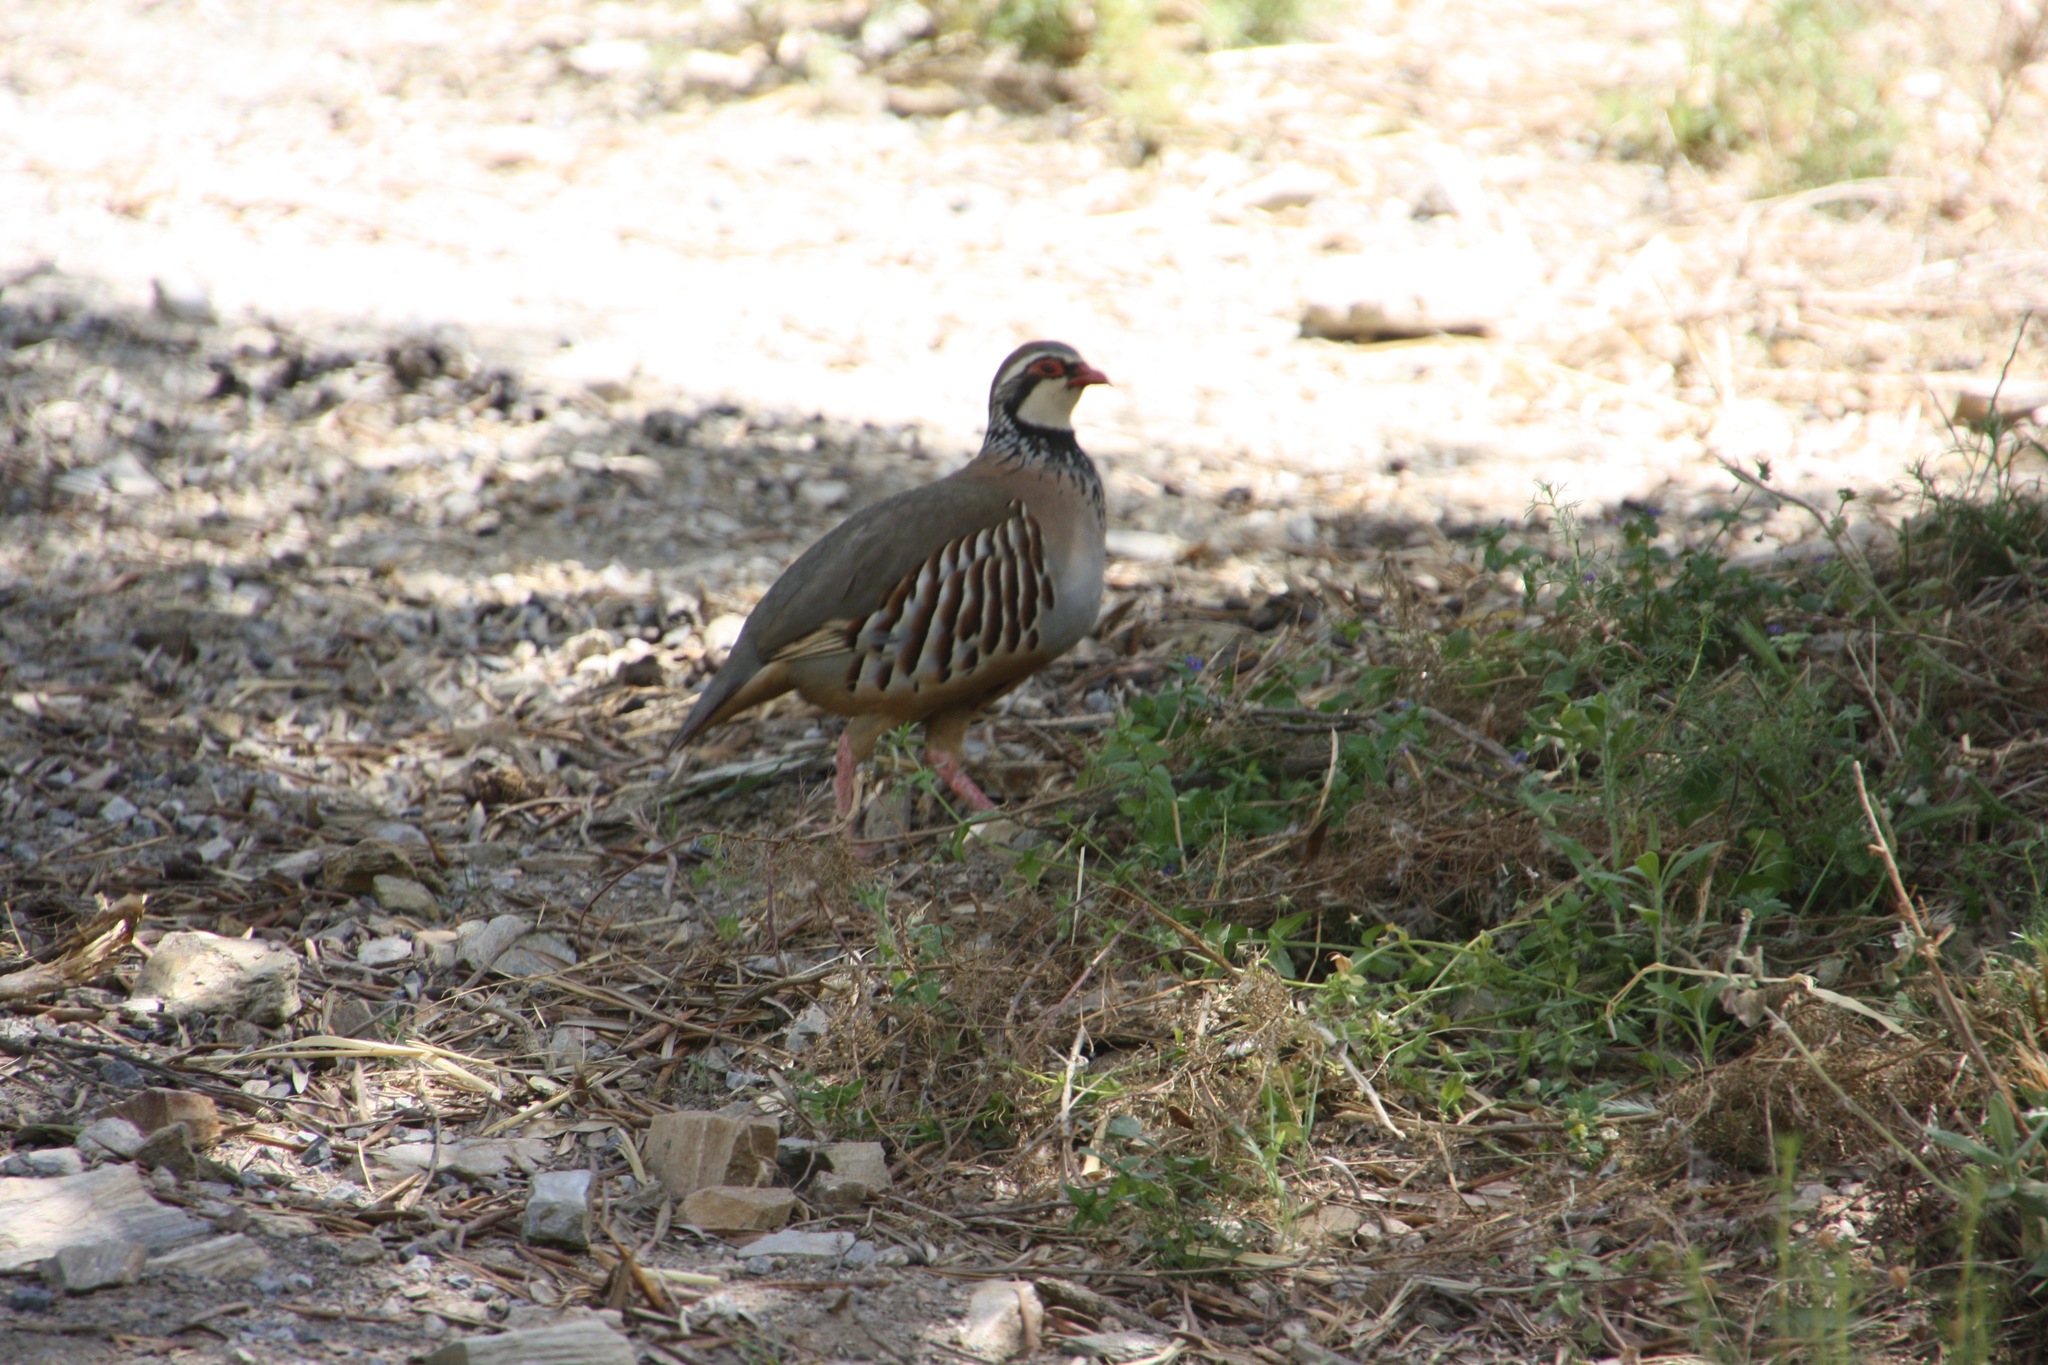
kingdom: Animalia
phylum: Chordata
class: Aves
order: Galliformes
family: Phasianidae
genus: Alectoris
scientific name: Alectoris rufa
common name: Red-legged partridge
